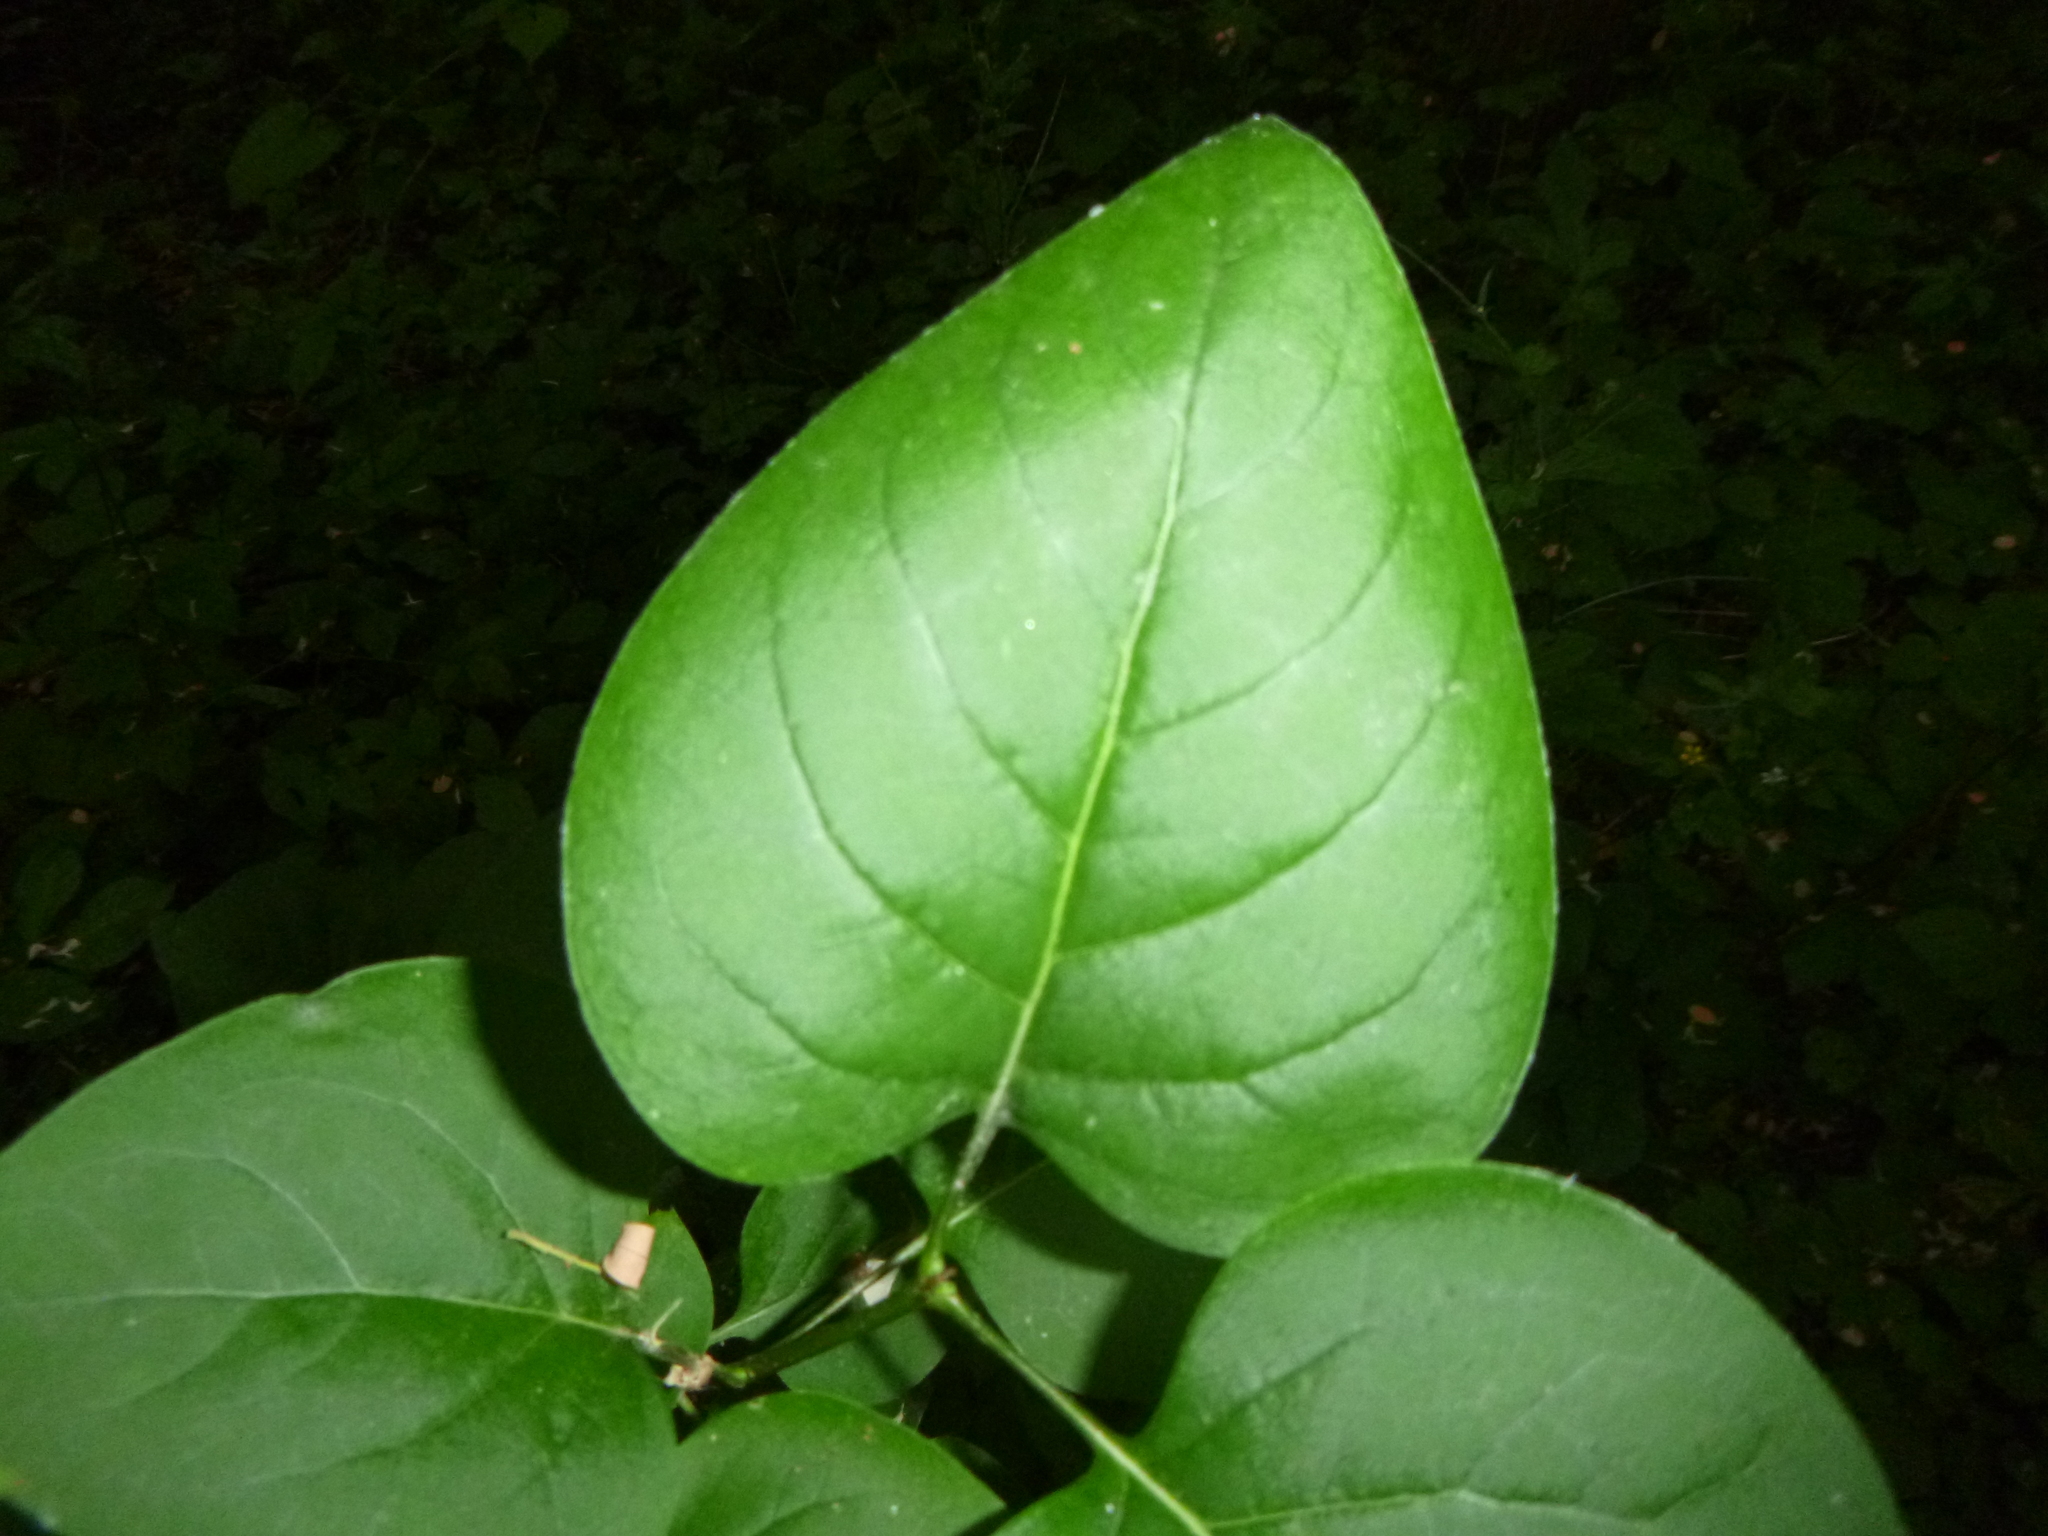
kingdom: Plantae
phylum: Tracheophyta
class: Magnoliopsida
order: Lamiales
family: Oleaceae
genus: Syringa
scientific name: Syringa vulgaris
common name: Common lilac
